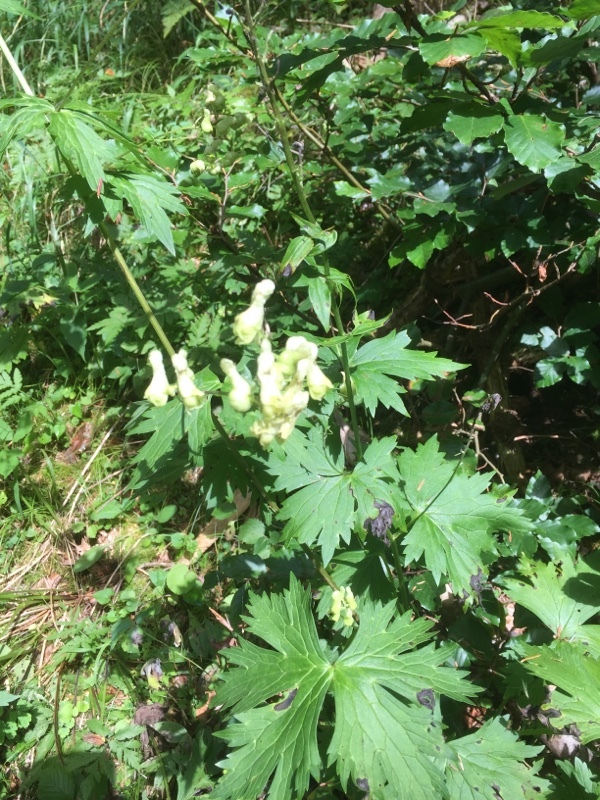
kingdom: Plantae
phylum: Tracheophyta
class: Magnoliopsida
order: Ranunculales
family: Ranunculaceae
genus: Aconitum
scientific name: Aconitum lycoctonum
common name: Wolf's-bane
